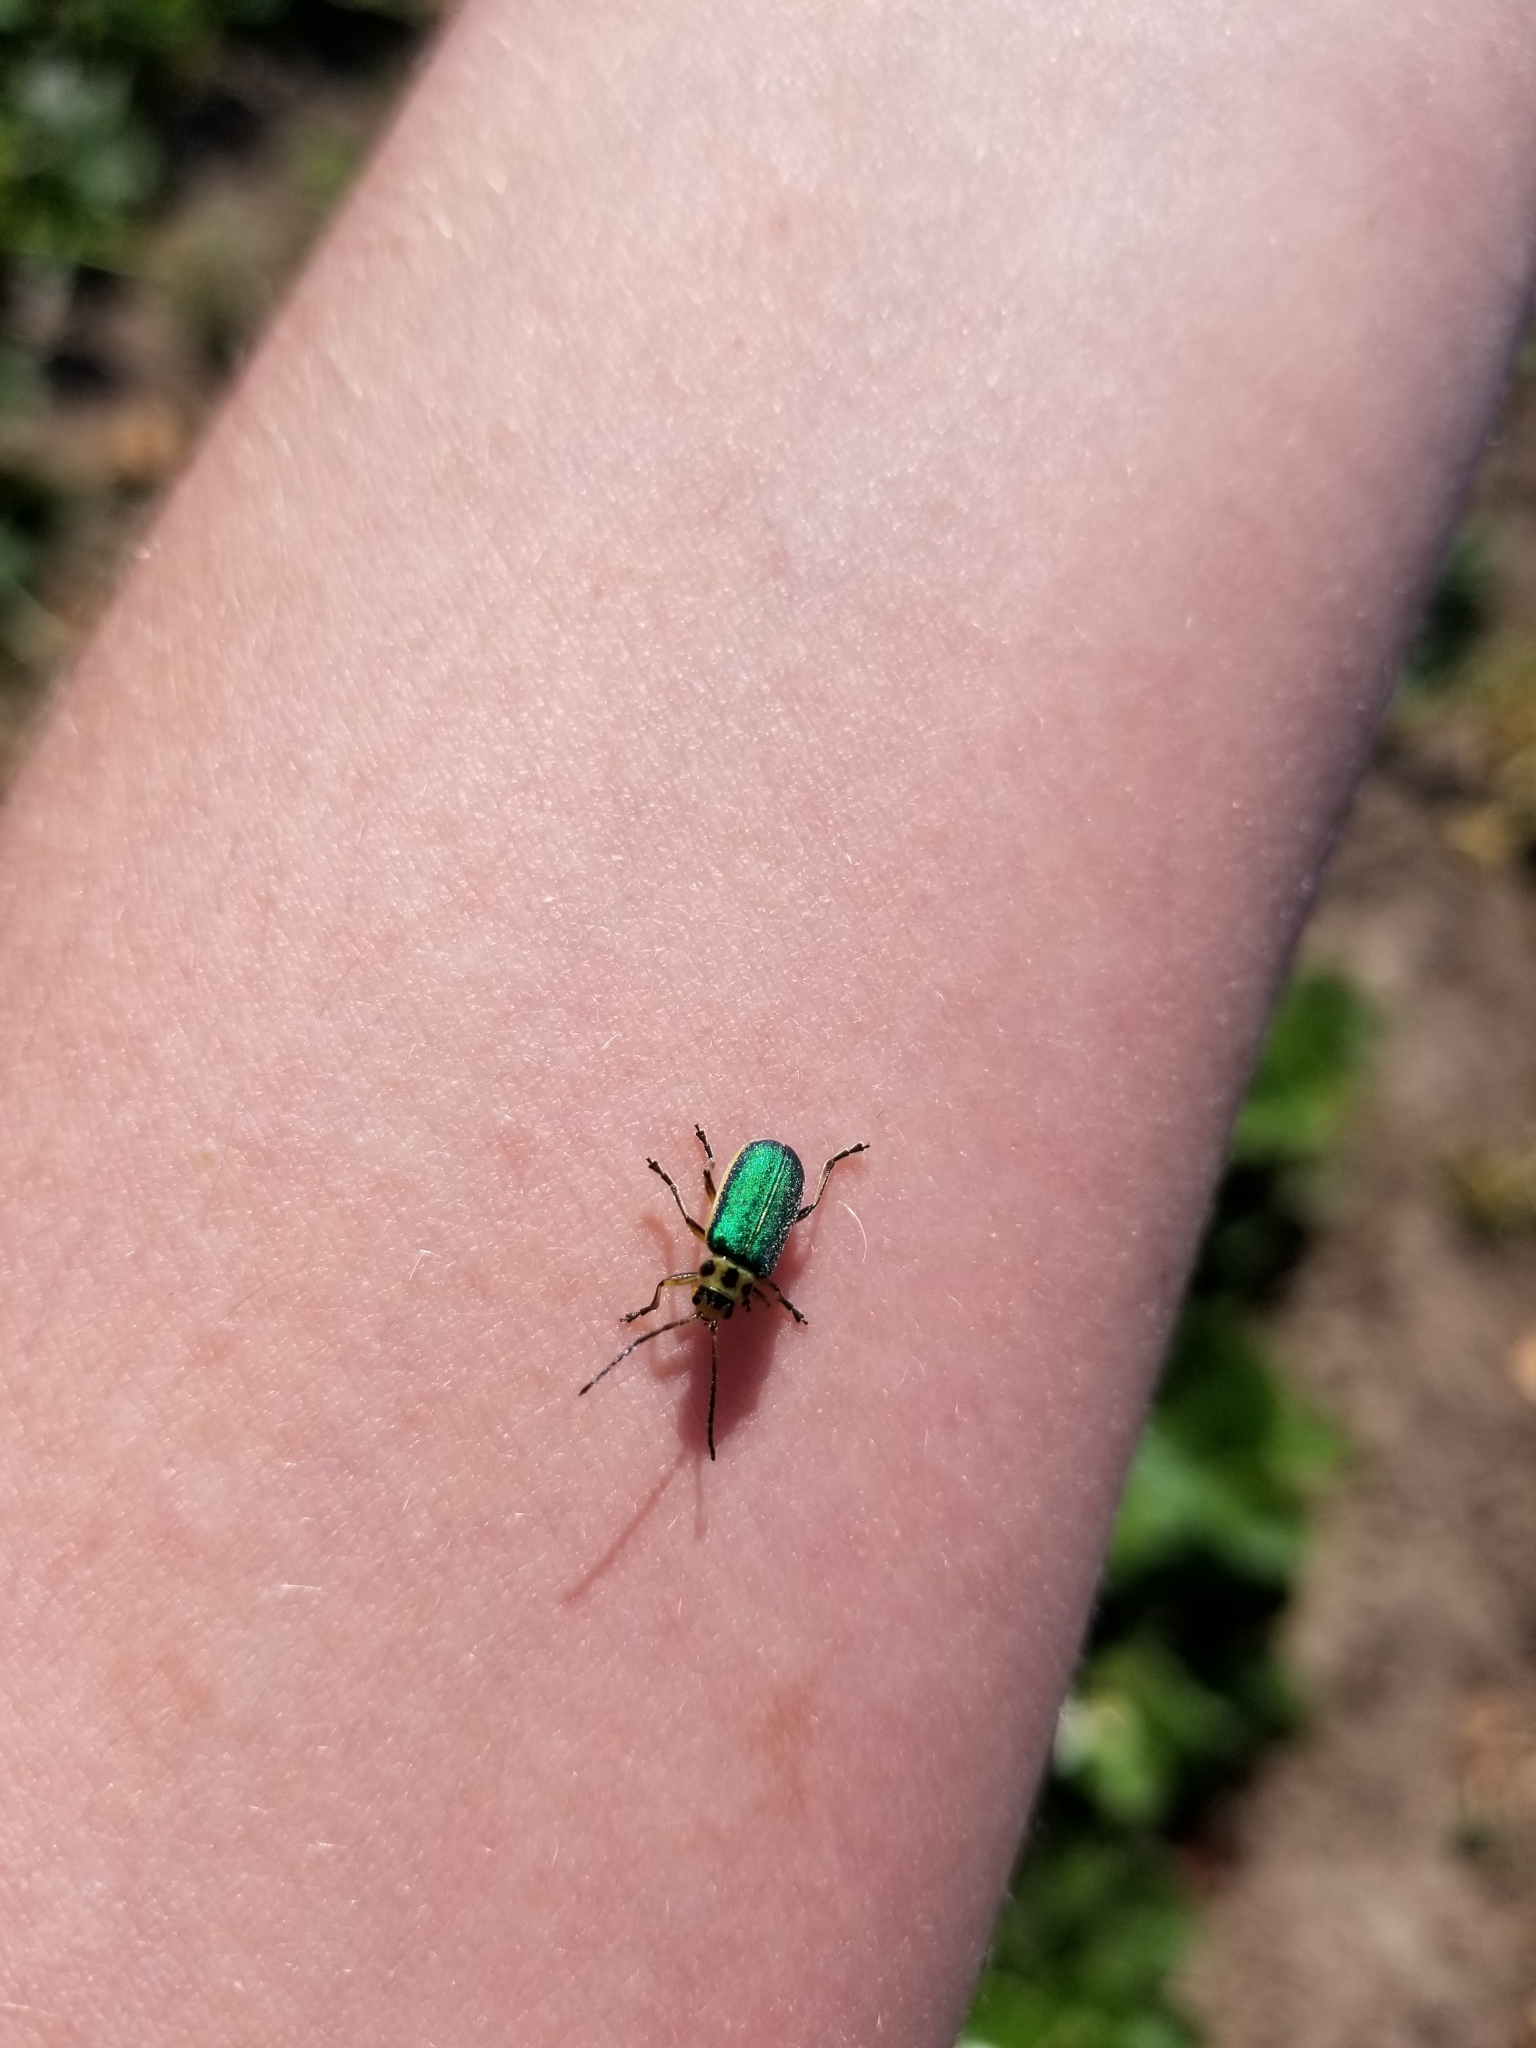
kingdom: Animalia
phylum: Arthropoda
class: Insecta
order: Coleoptera
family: Chrysomelidae
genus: Trirhabda
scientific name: Trirhabda flavolimbata
